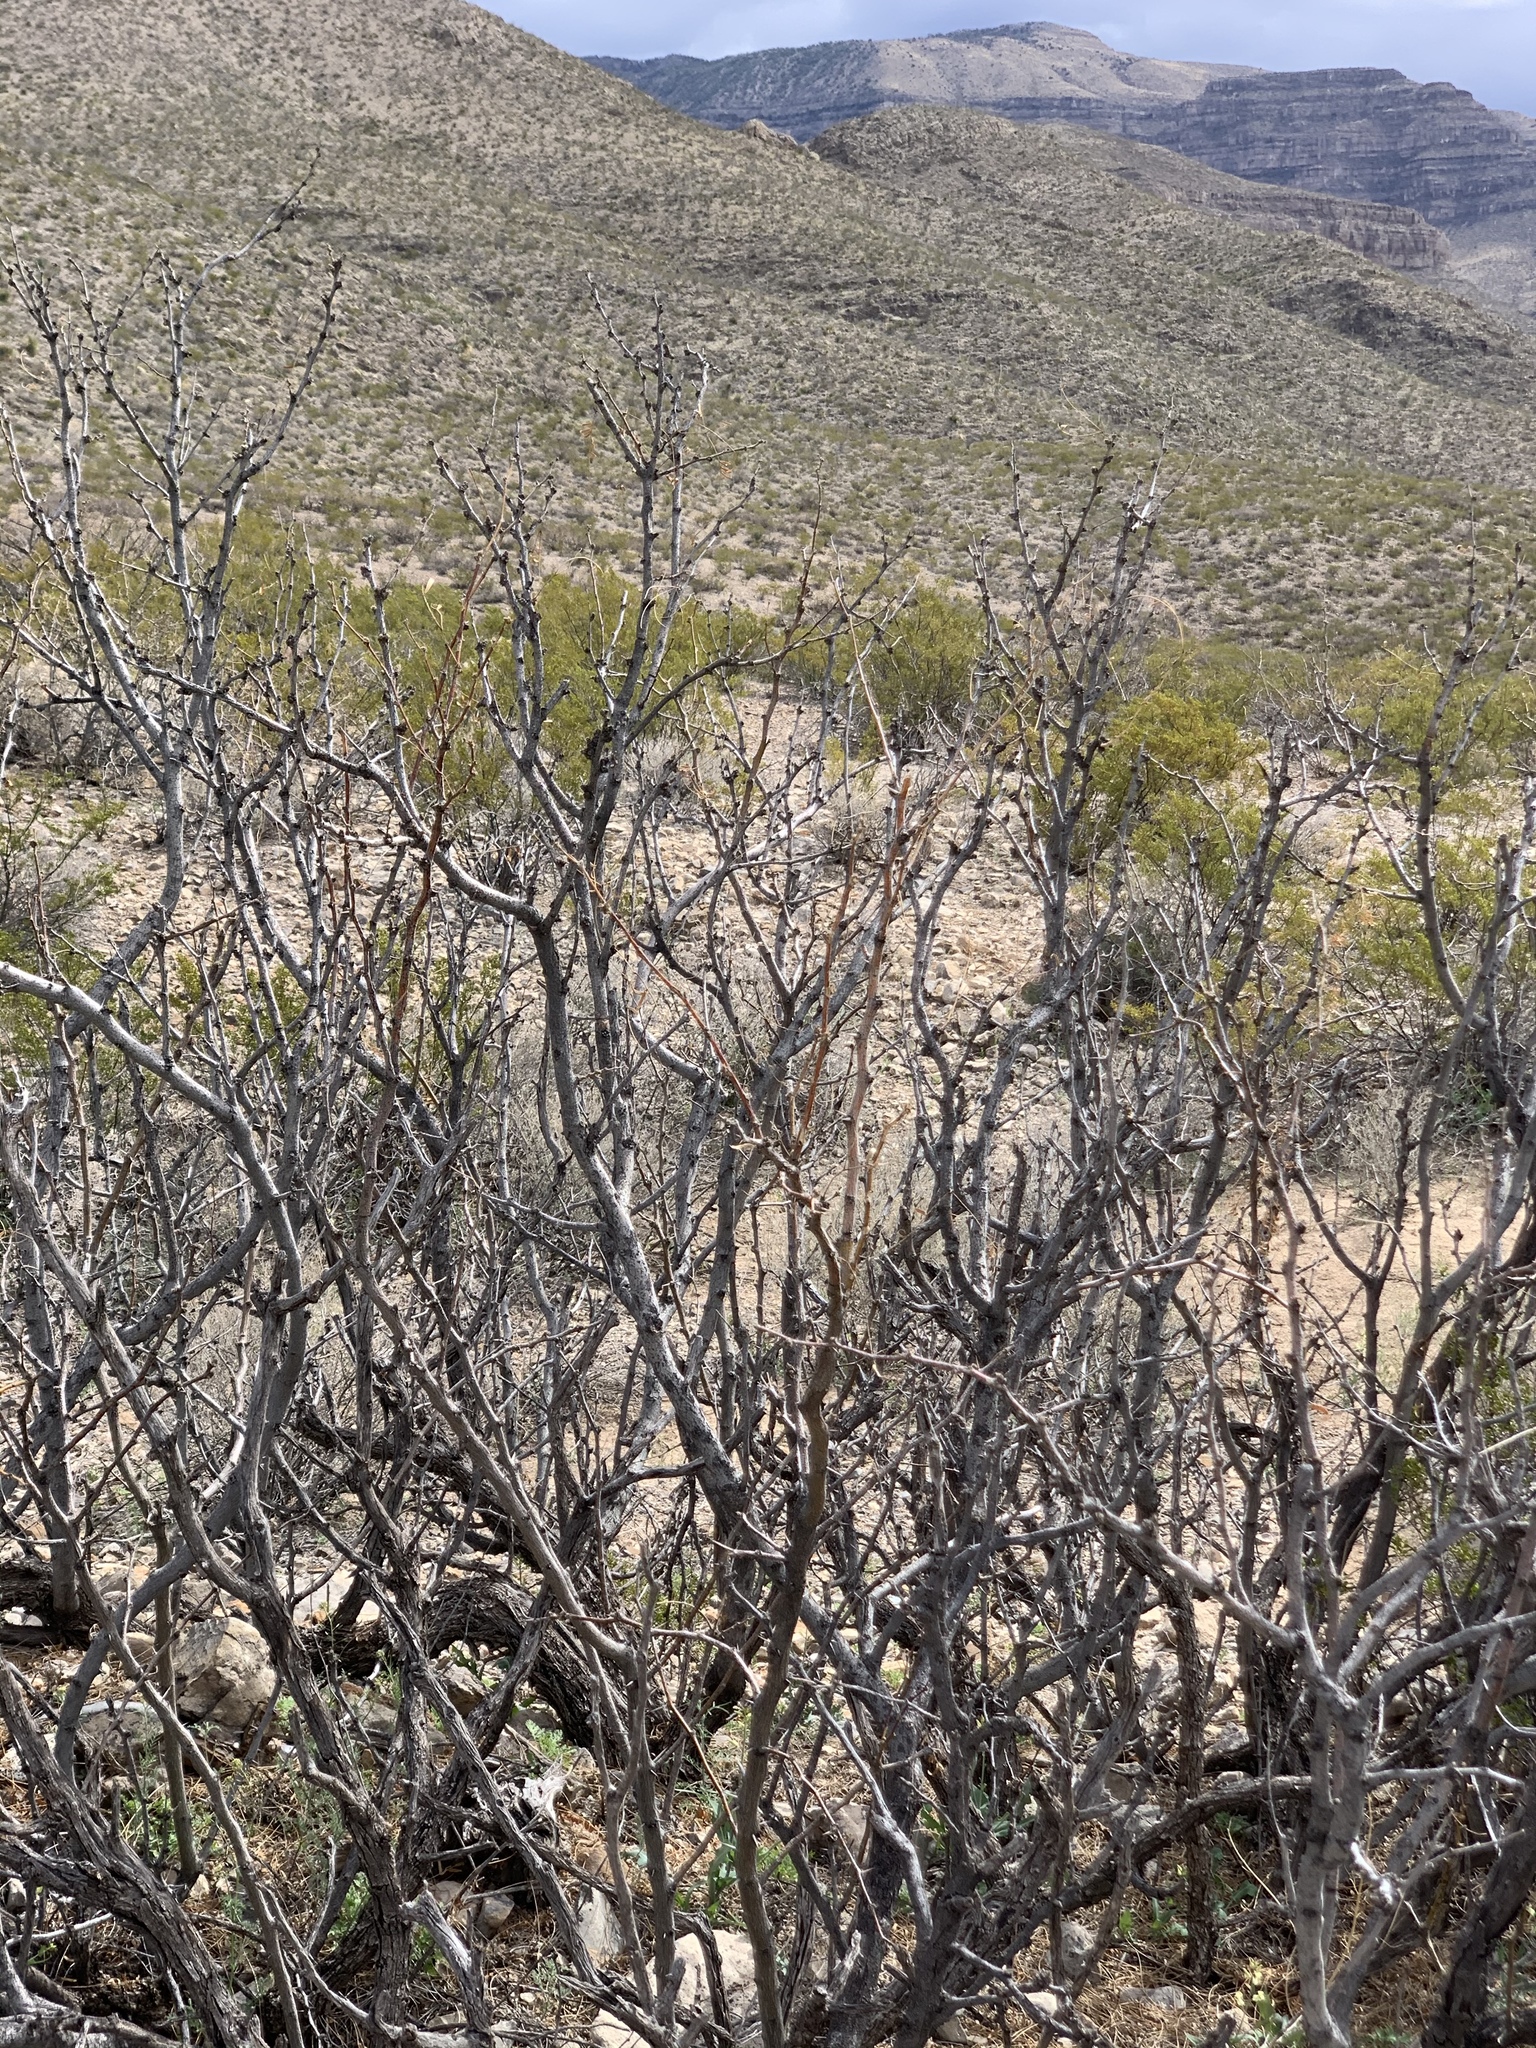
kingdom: Plantae
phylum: Tracheophyta
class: Magnoliopsida
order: Fabales
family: Fabaceae
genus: Prosopis
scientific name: Prosopis glandulosa
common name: Honey mesquite
